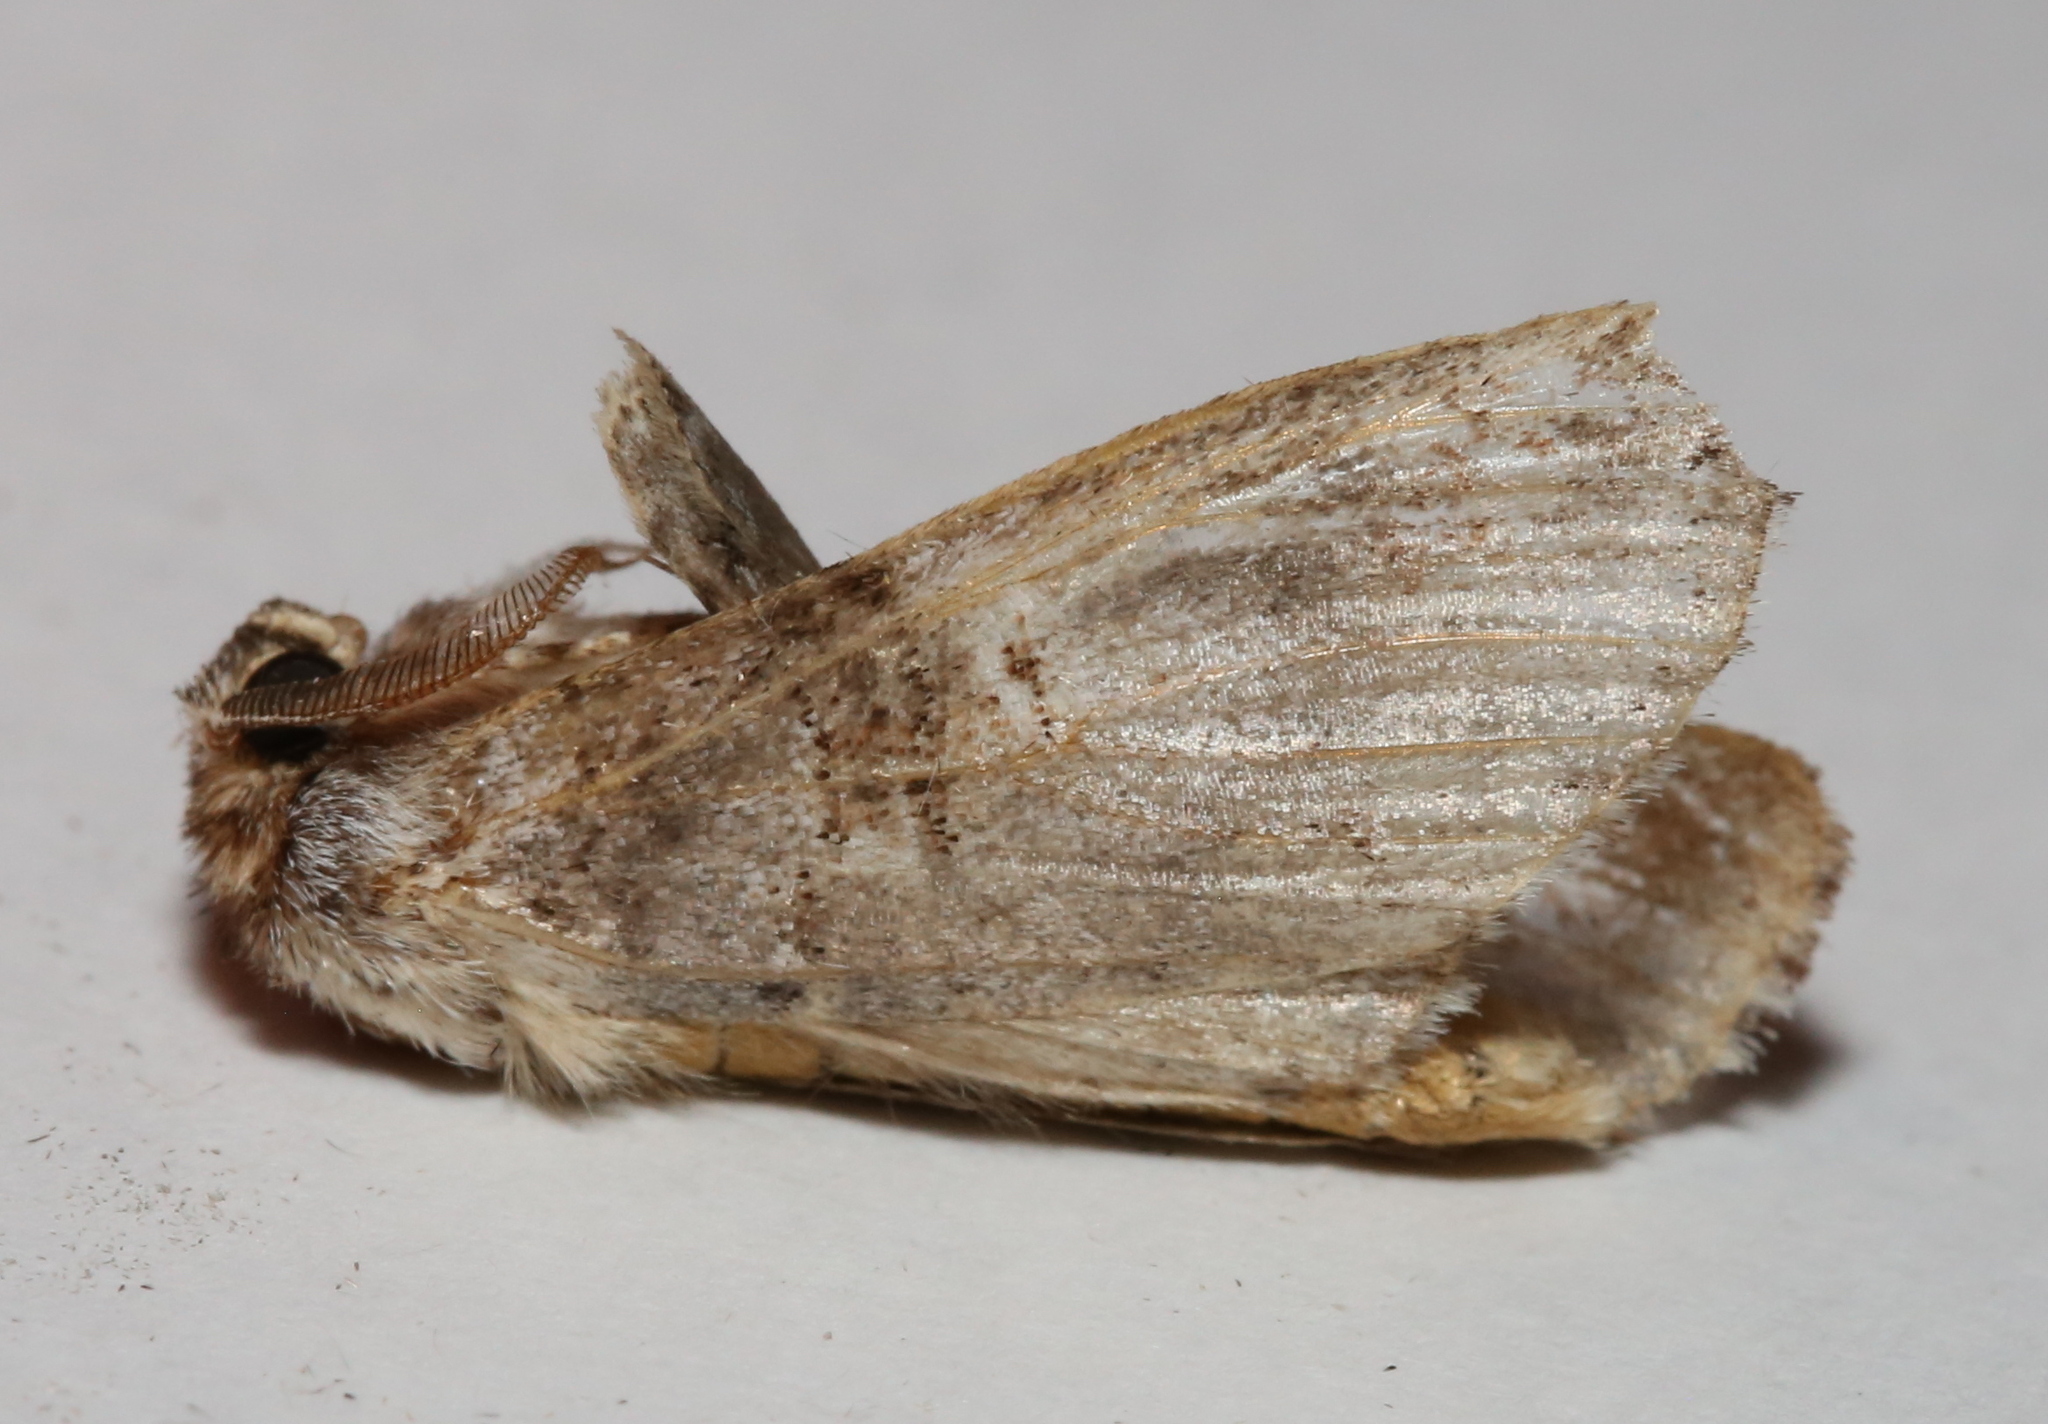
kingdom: Animalia
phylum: Arthropoda
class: Insecta
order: Lepidoptera
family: Notodontidae
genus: Ellida
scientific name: Ellida caniplaga
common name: Linden prominent
